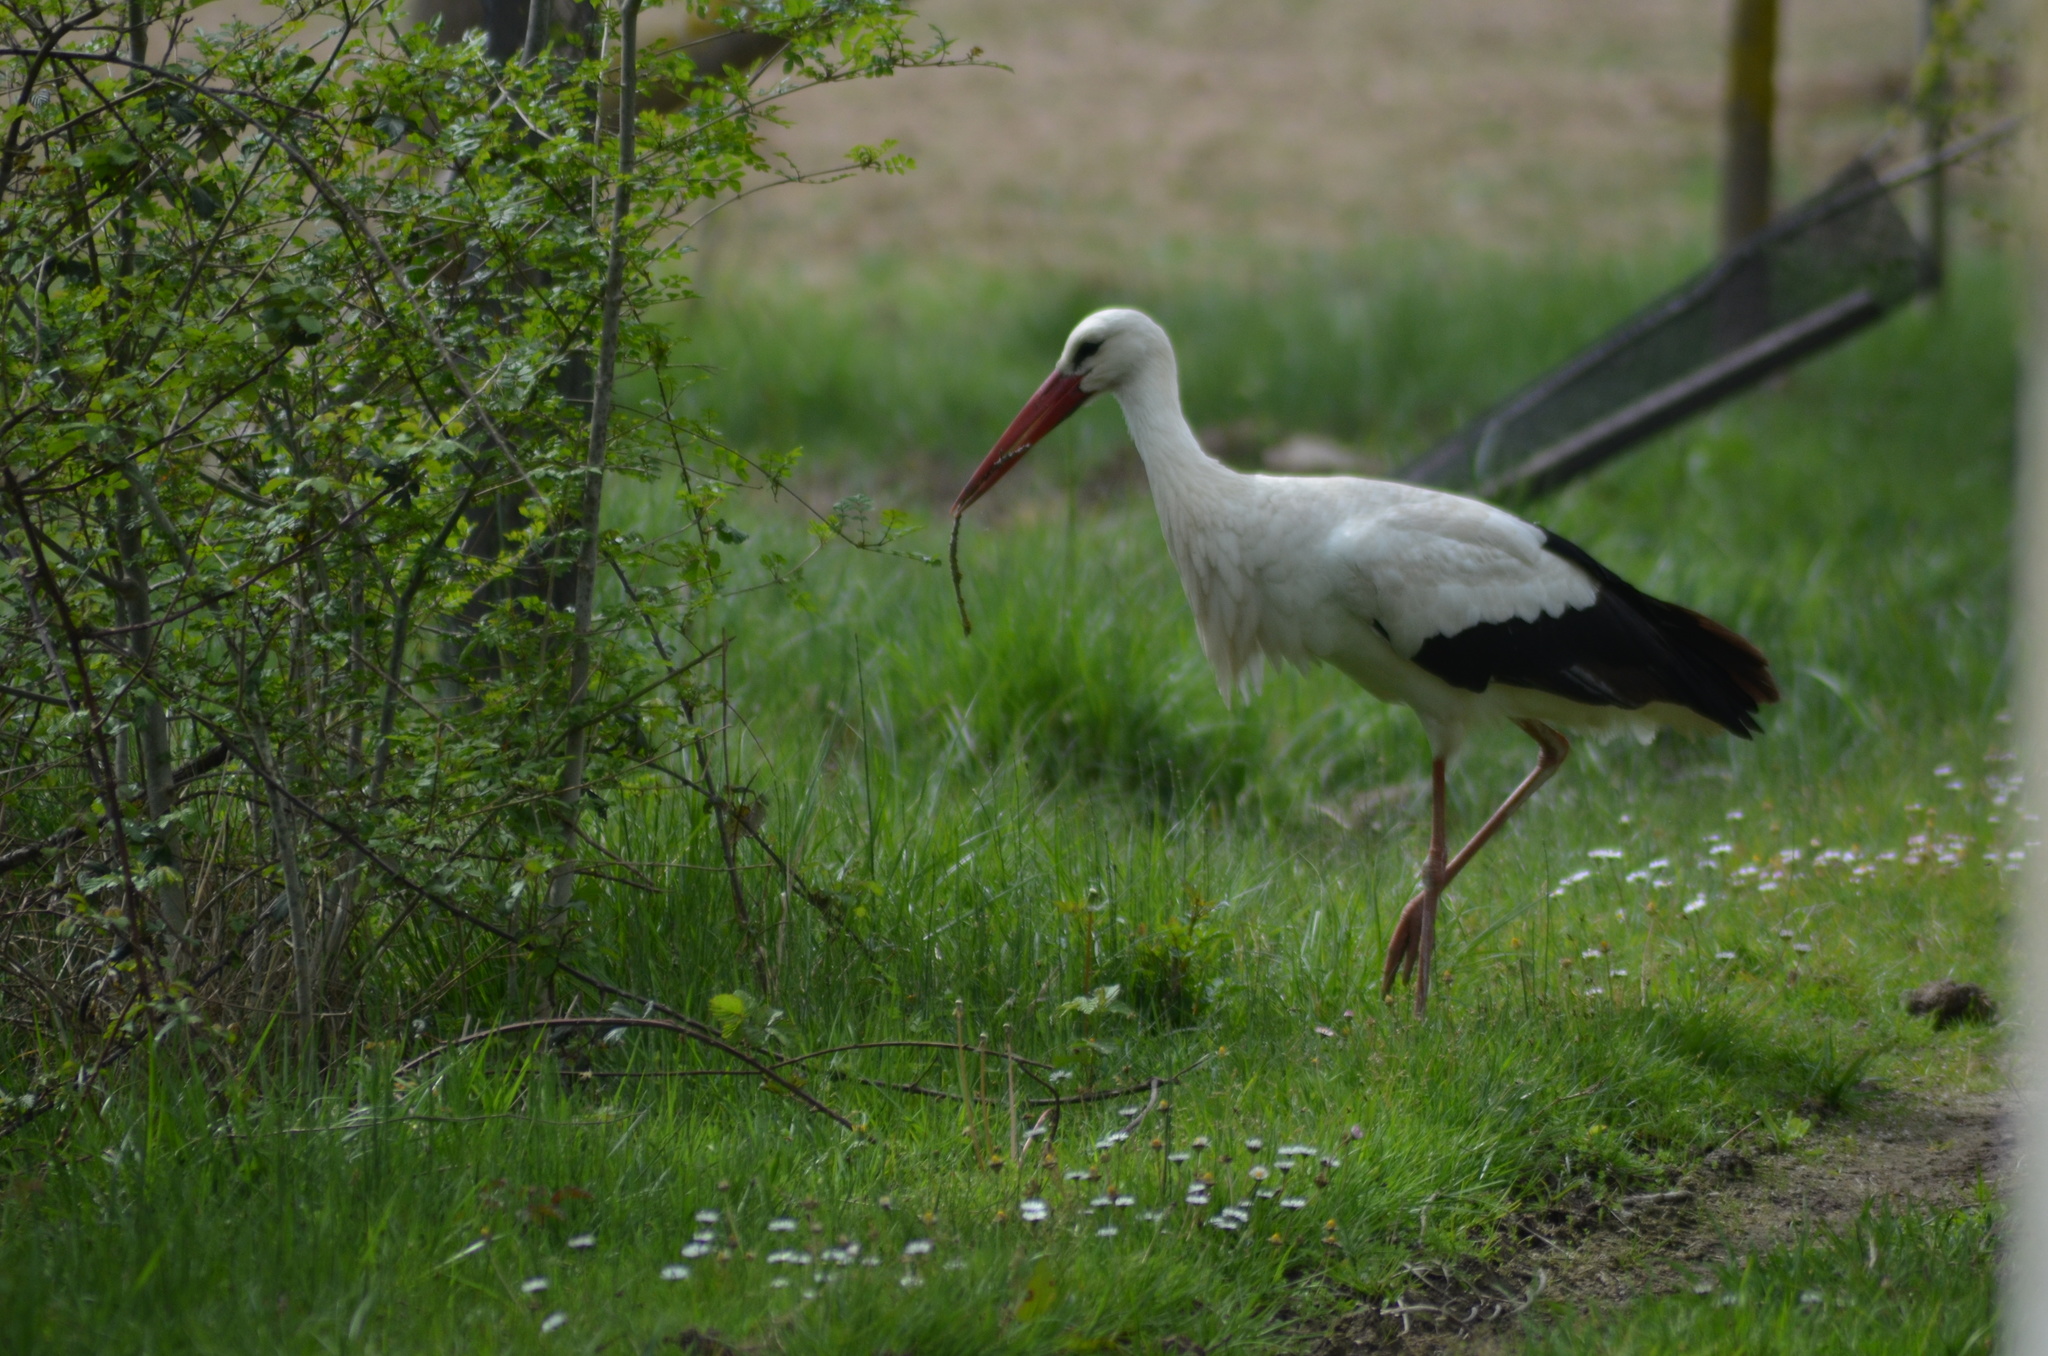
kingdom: Animalia
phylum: Chordata
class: Aves
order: Ciconiiformes
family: Ciconiidae
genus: Ciconia
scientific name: Ciconia ciconia
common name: White stork
